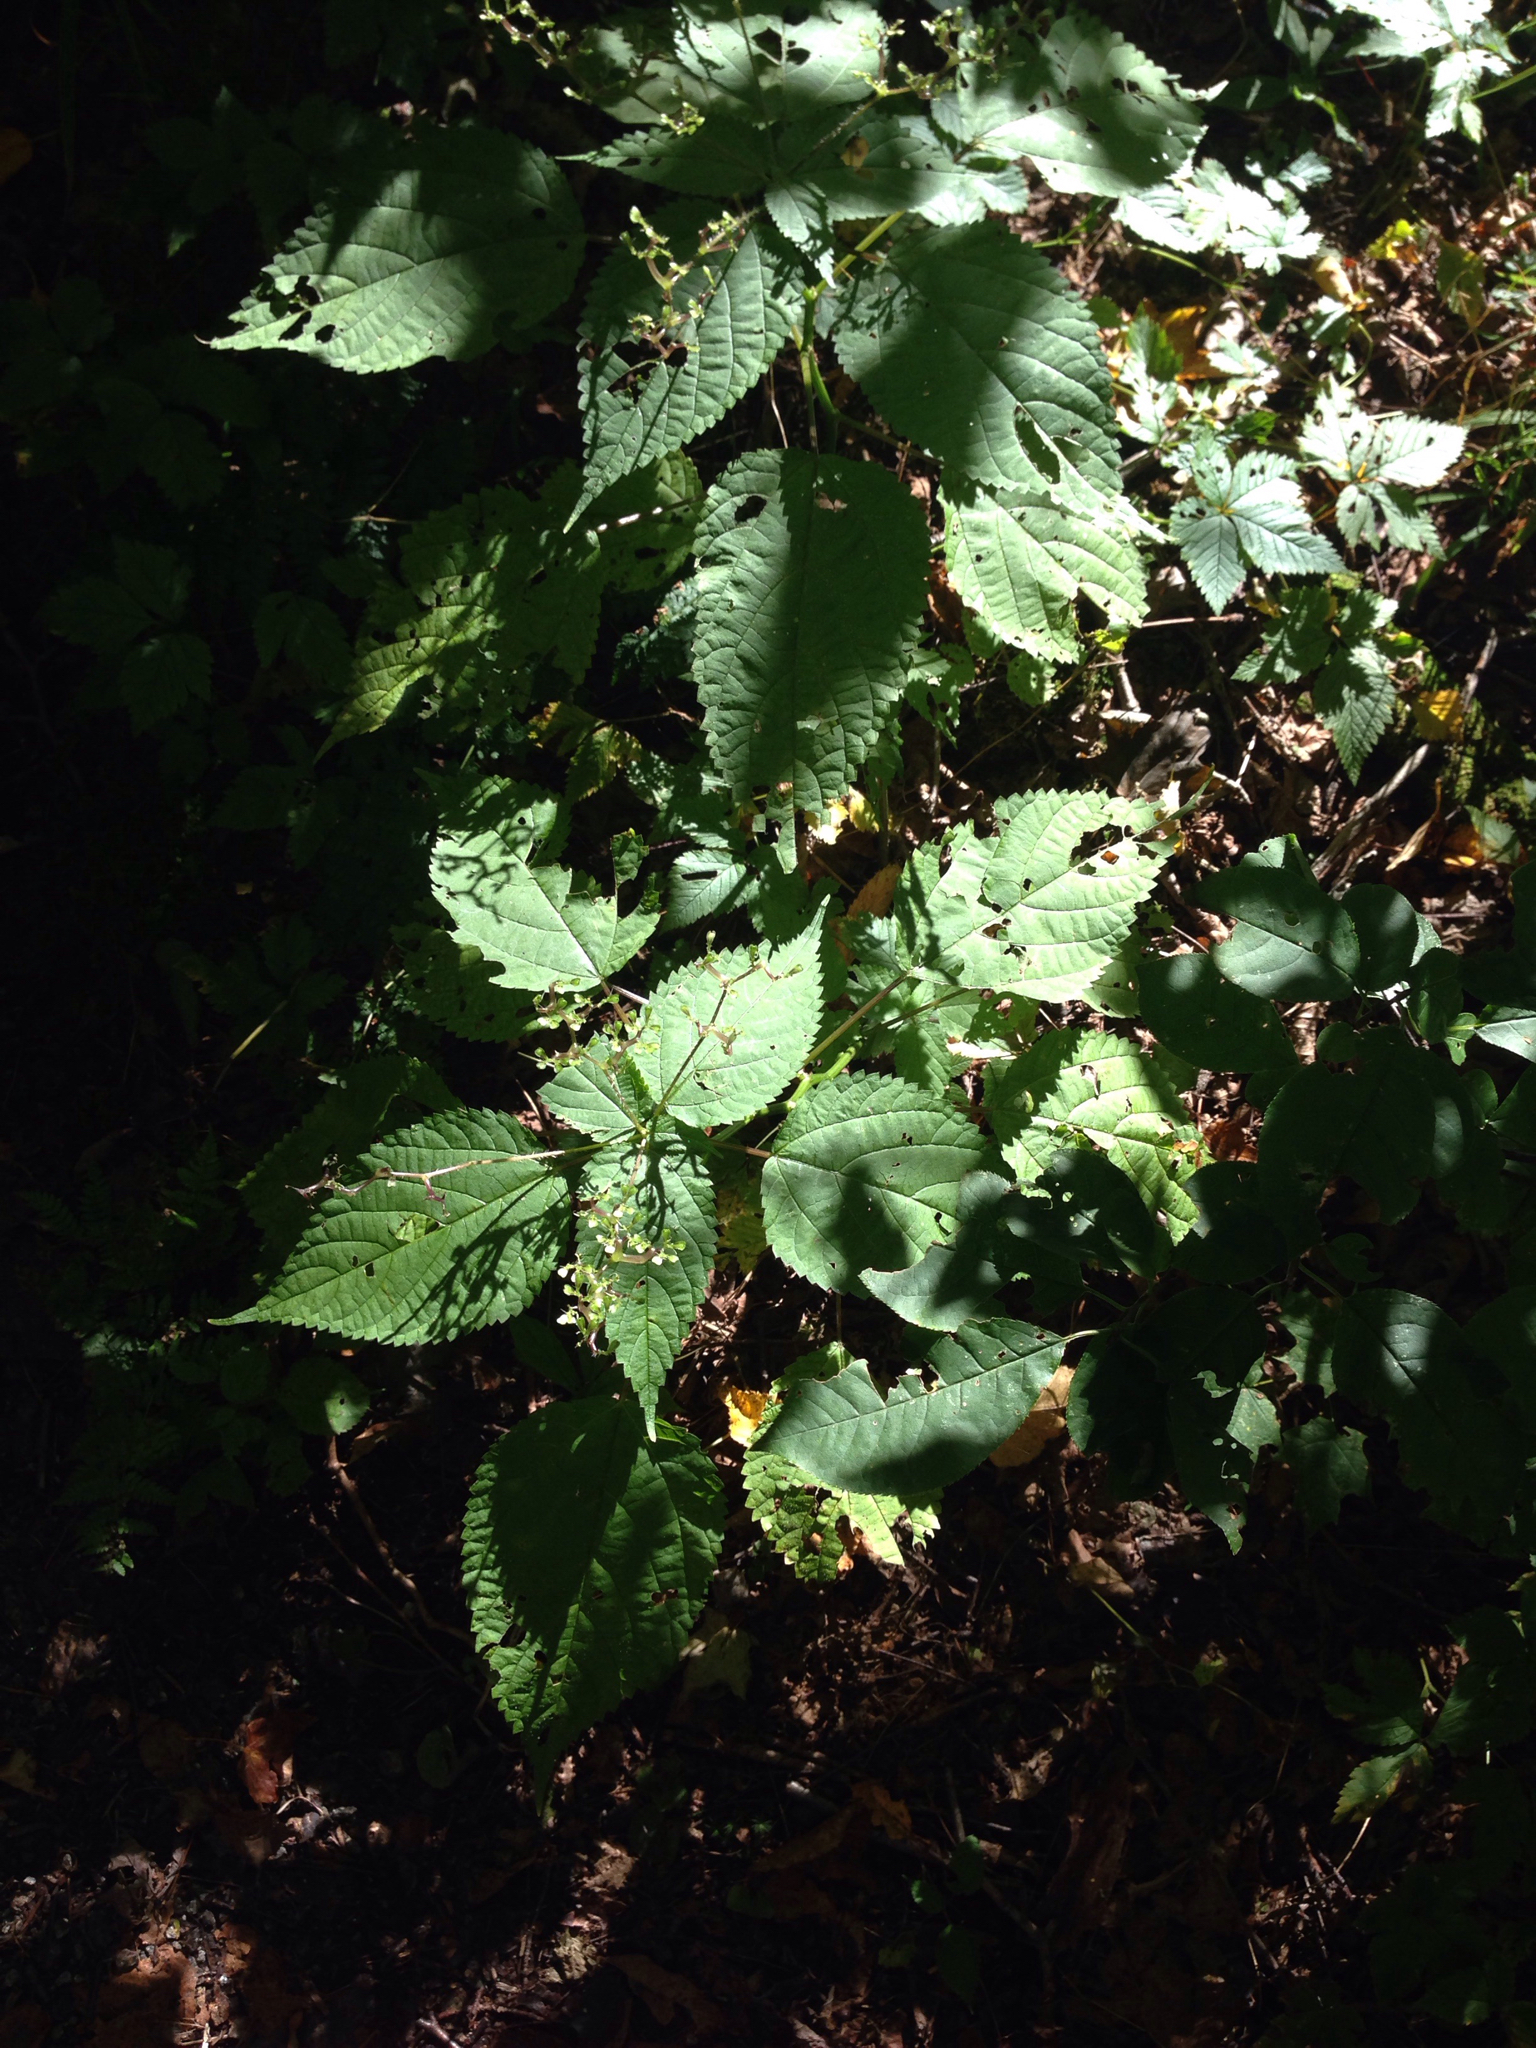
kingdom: Plantae
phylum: Tracheophyta
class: Magnoliopsida
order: Rosales
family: Urticaceae
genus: Laportea
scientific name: Laportea canadensis
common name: Canada nettle
